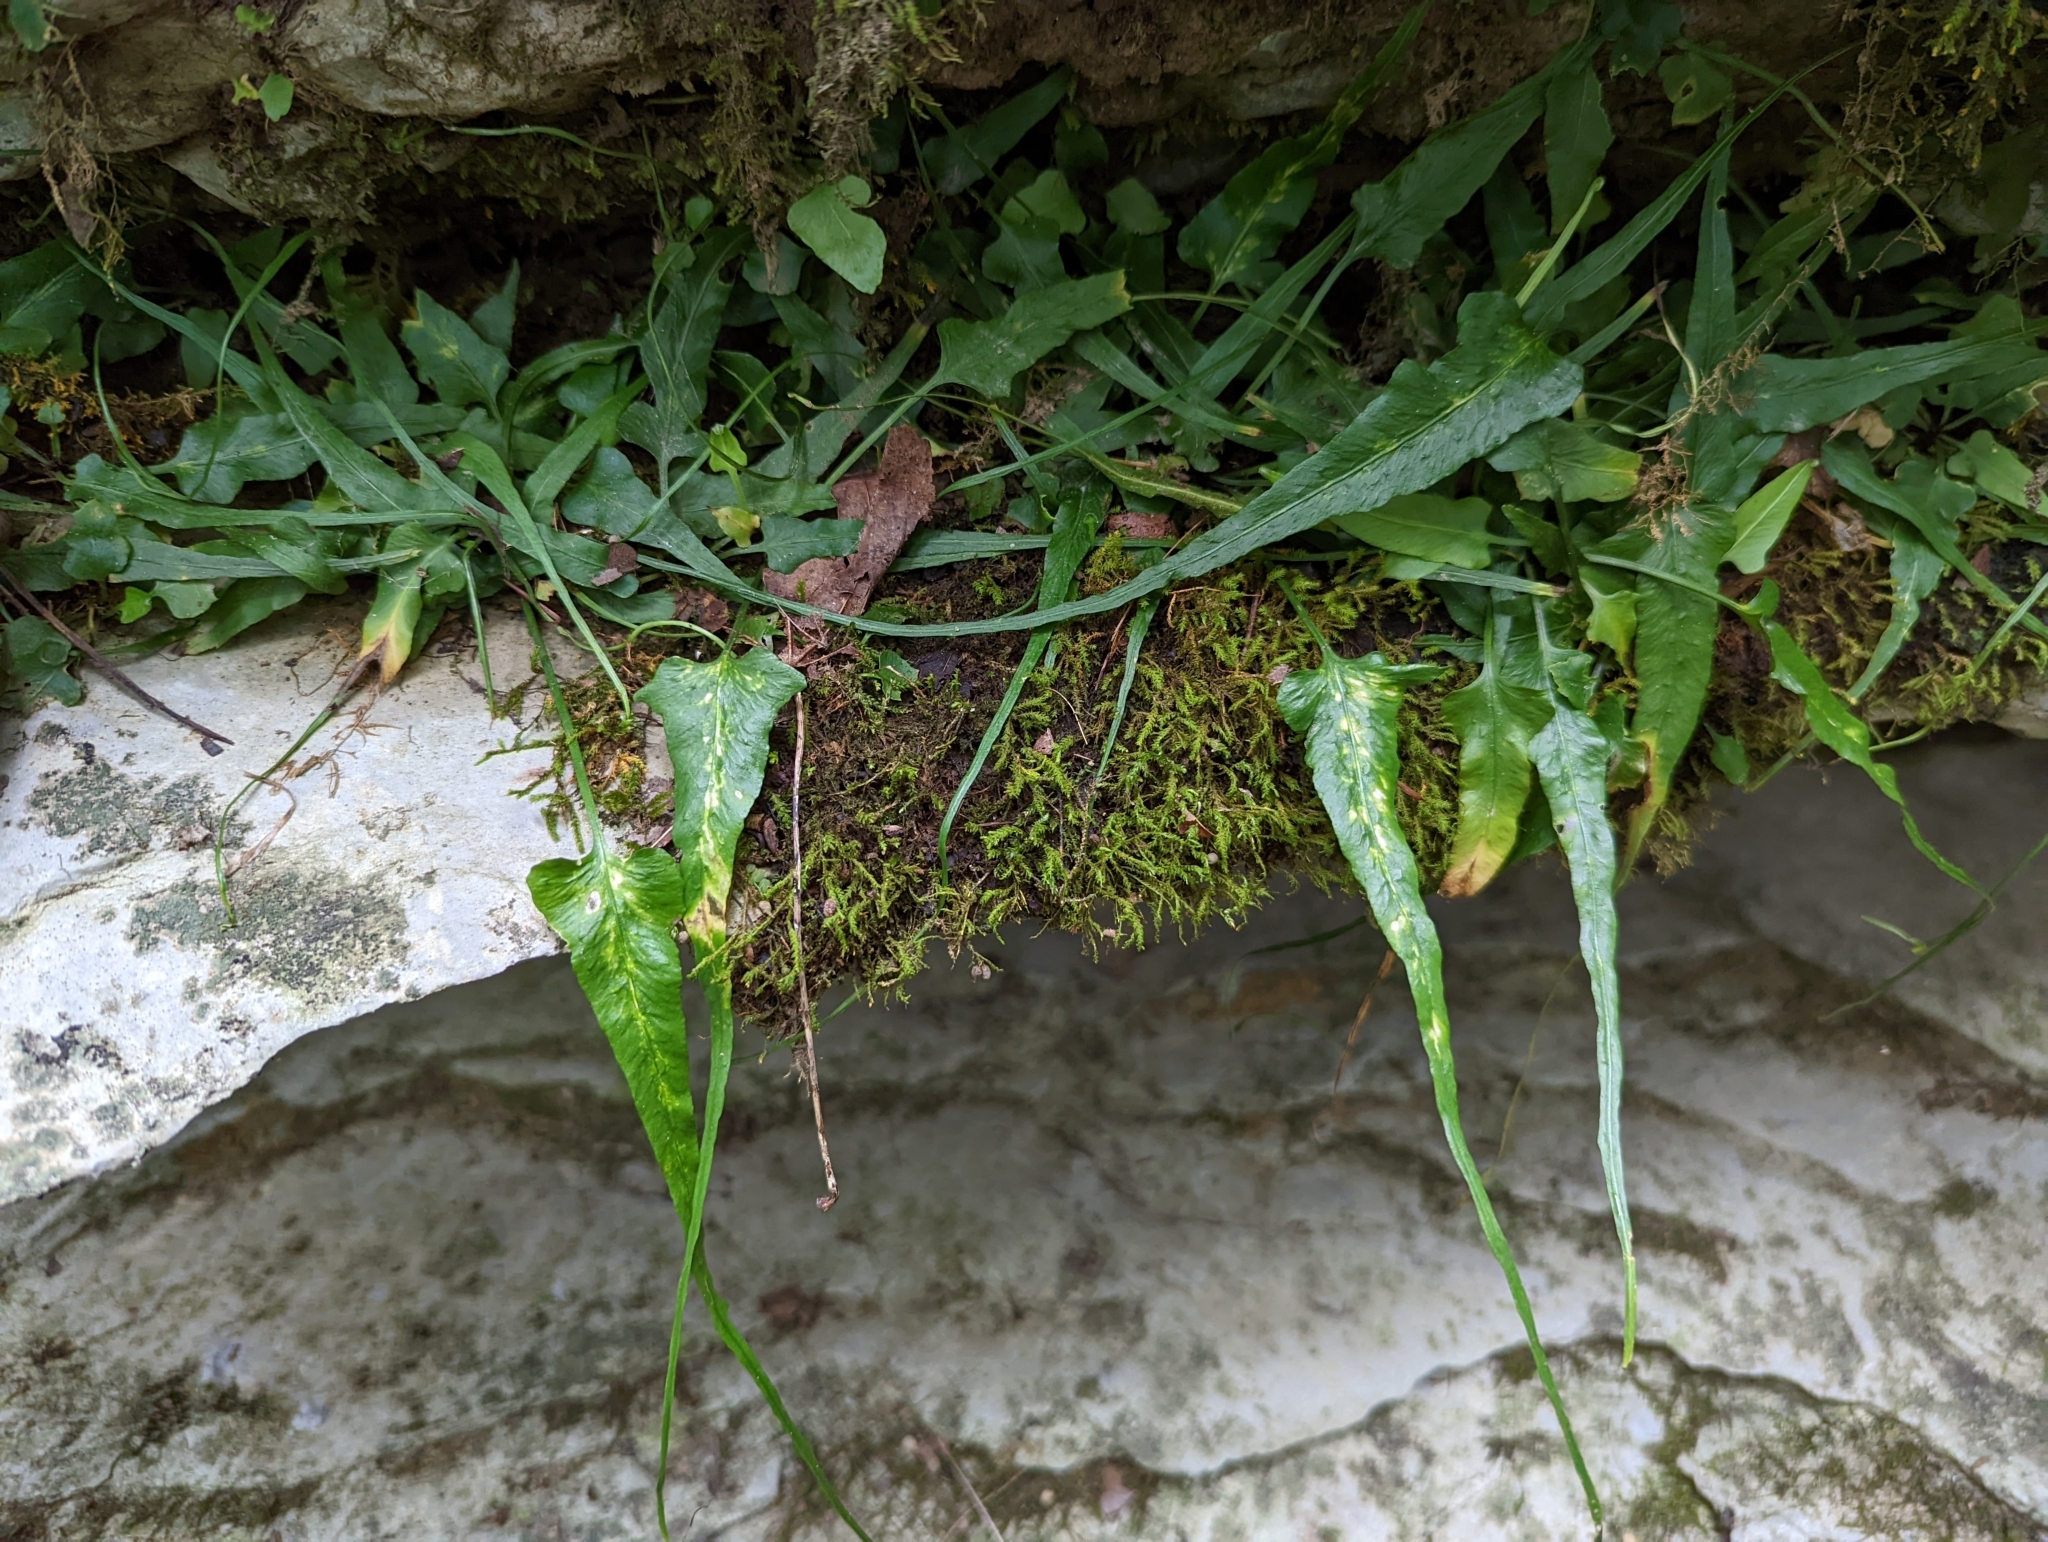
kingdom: Plantae
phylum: Tracheophyta
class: Polypodiopsida
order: Polypodiales
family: Aspleniaceae
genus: Asplenium
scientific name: Asplenium rhizophyllum
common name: Walking fern
